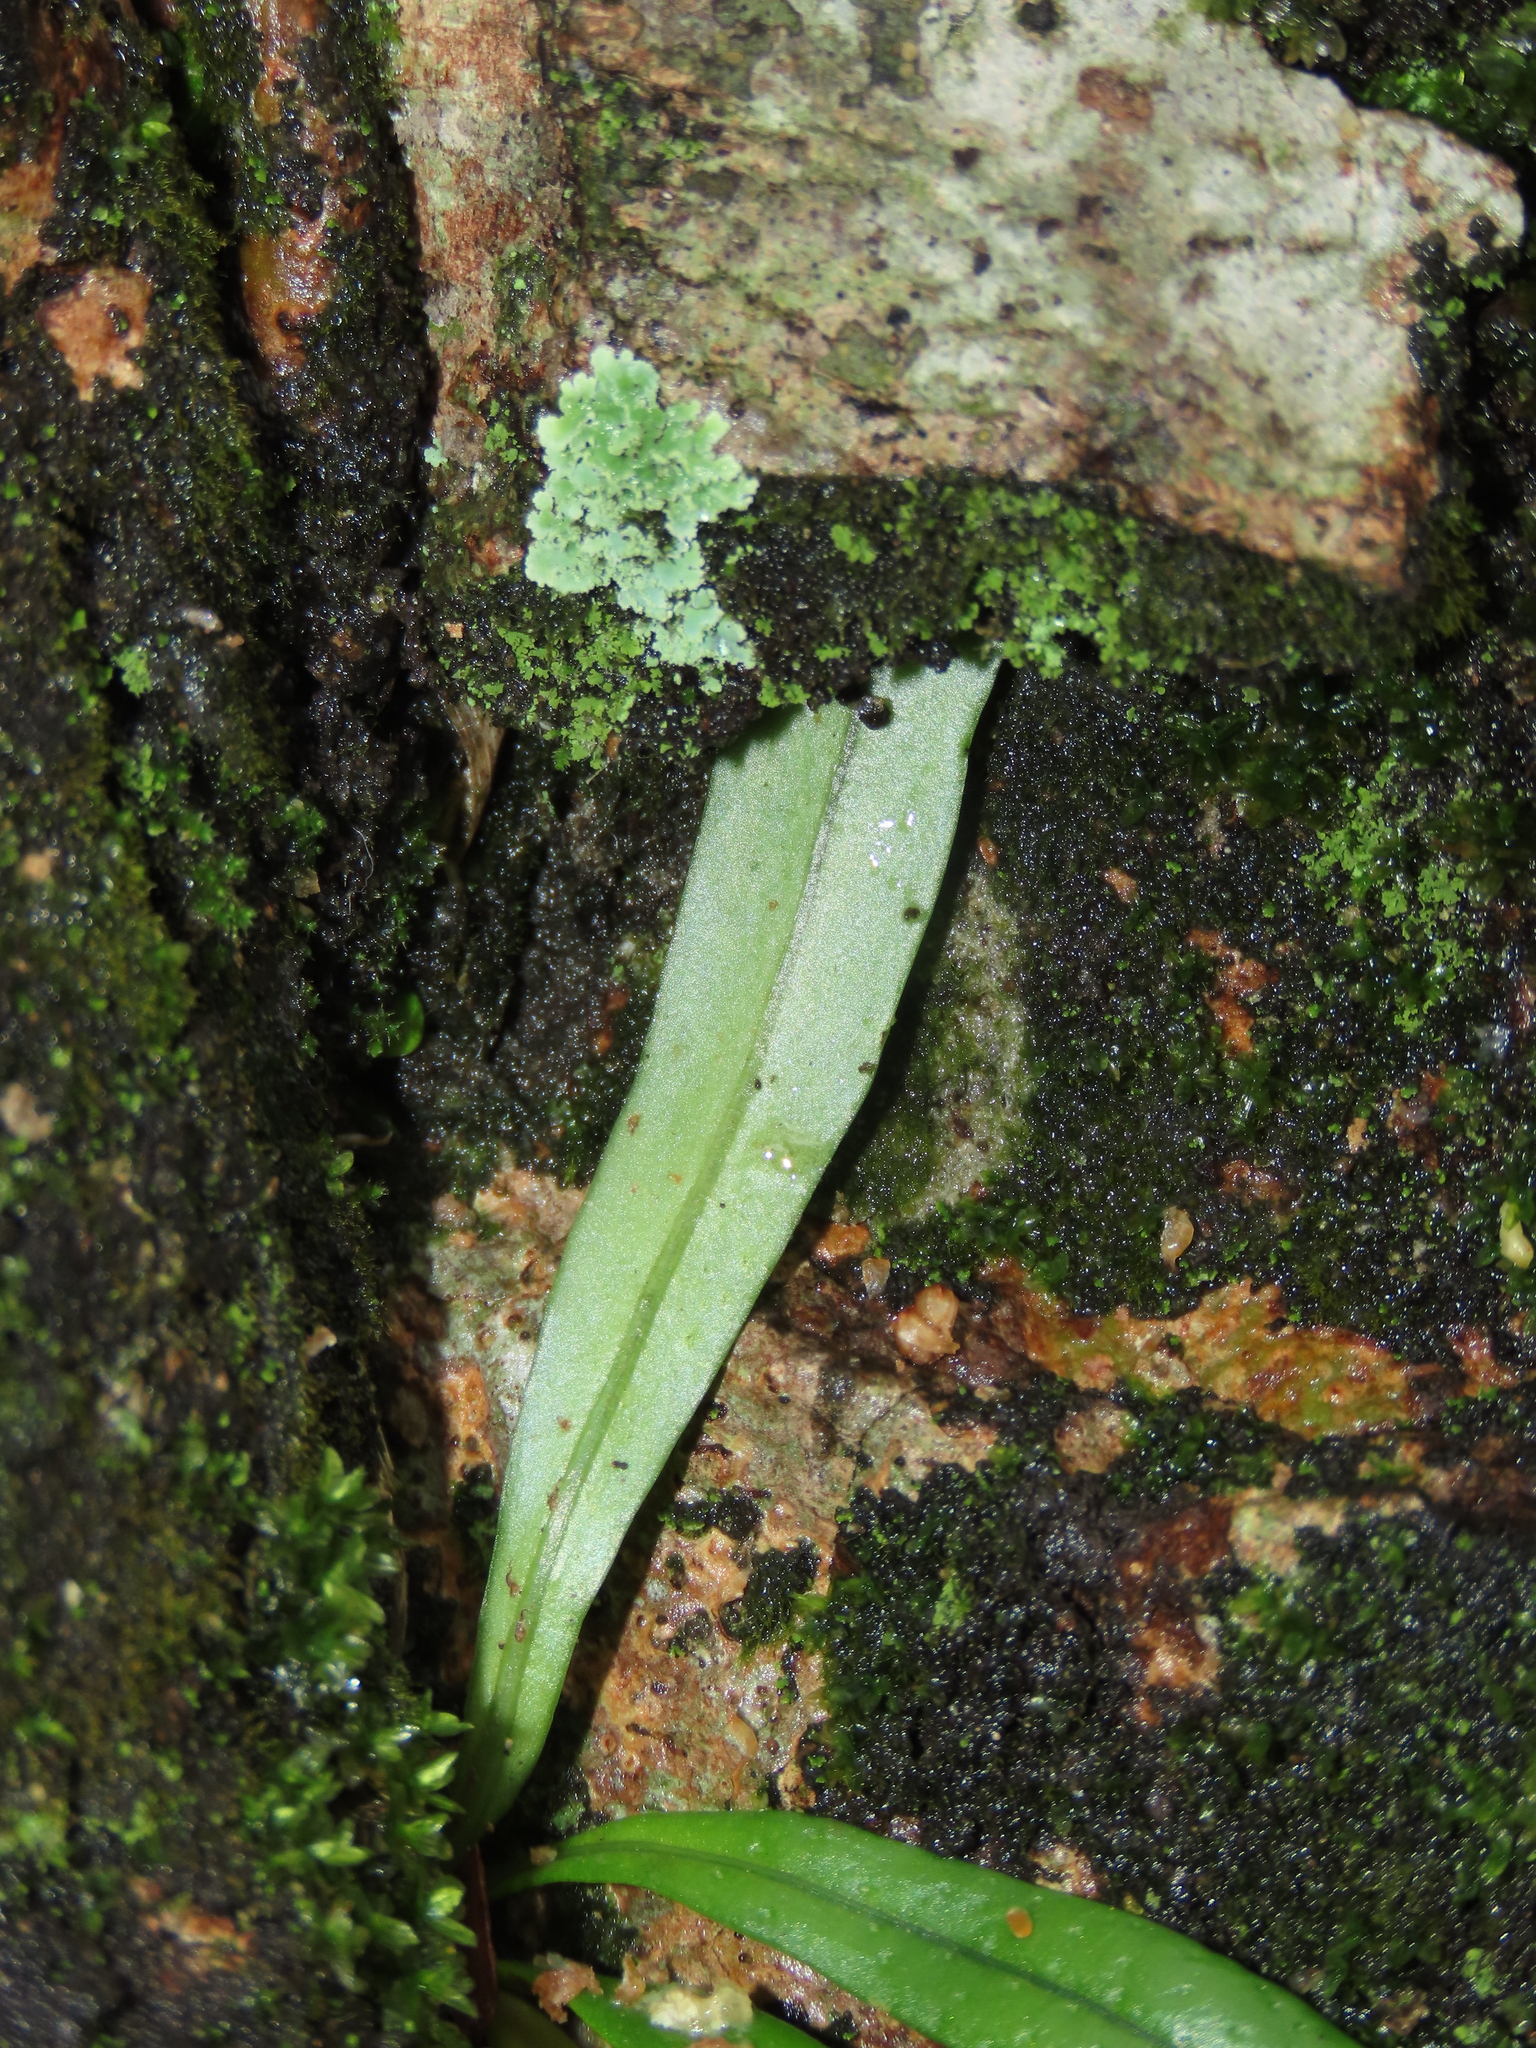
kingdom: Plantae
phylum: Tracheophyta
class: Polypodiopsida
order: Polypodiales
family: Polypodiaceae
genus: Lepisorus
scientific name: Lepisorus thunbergianus
